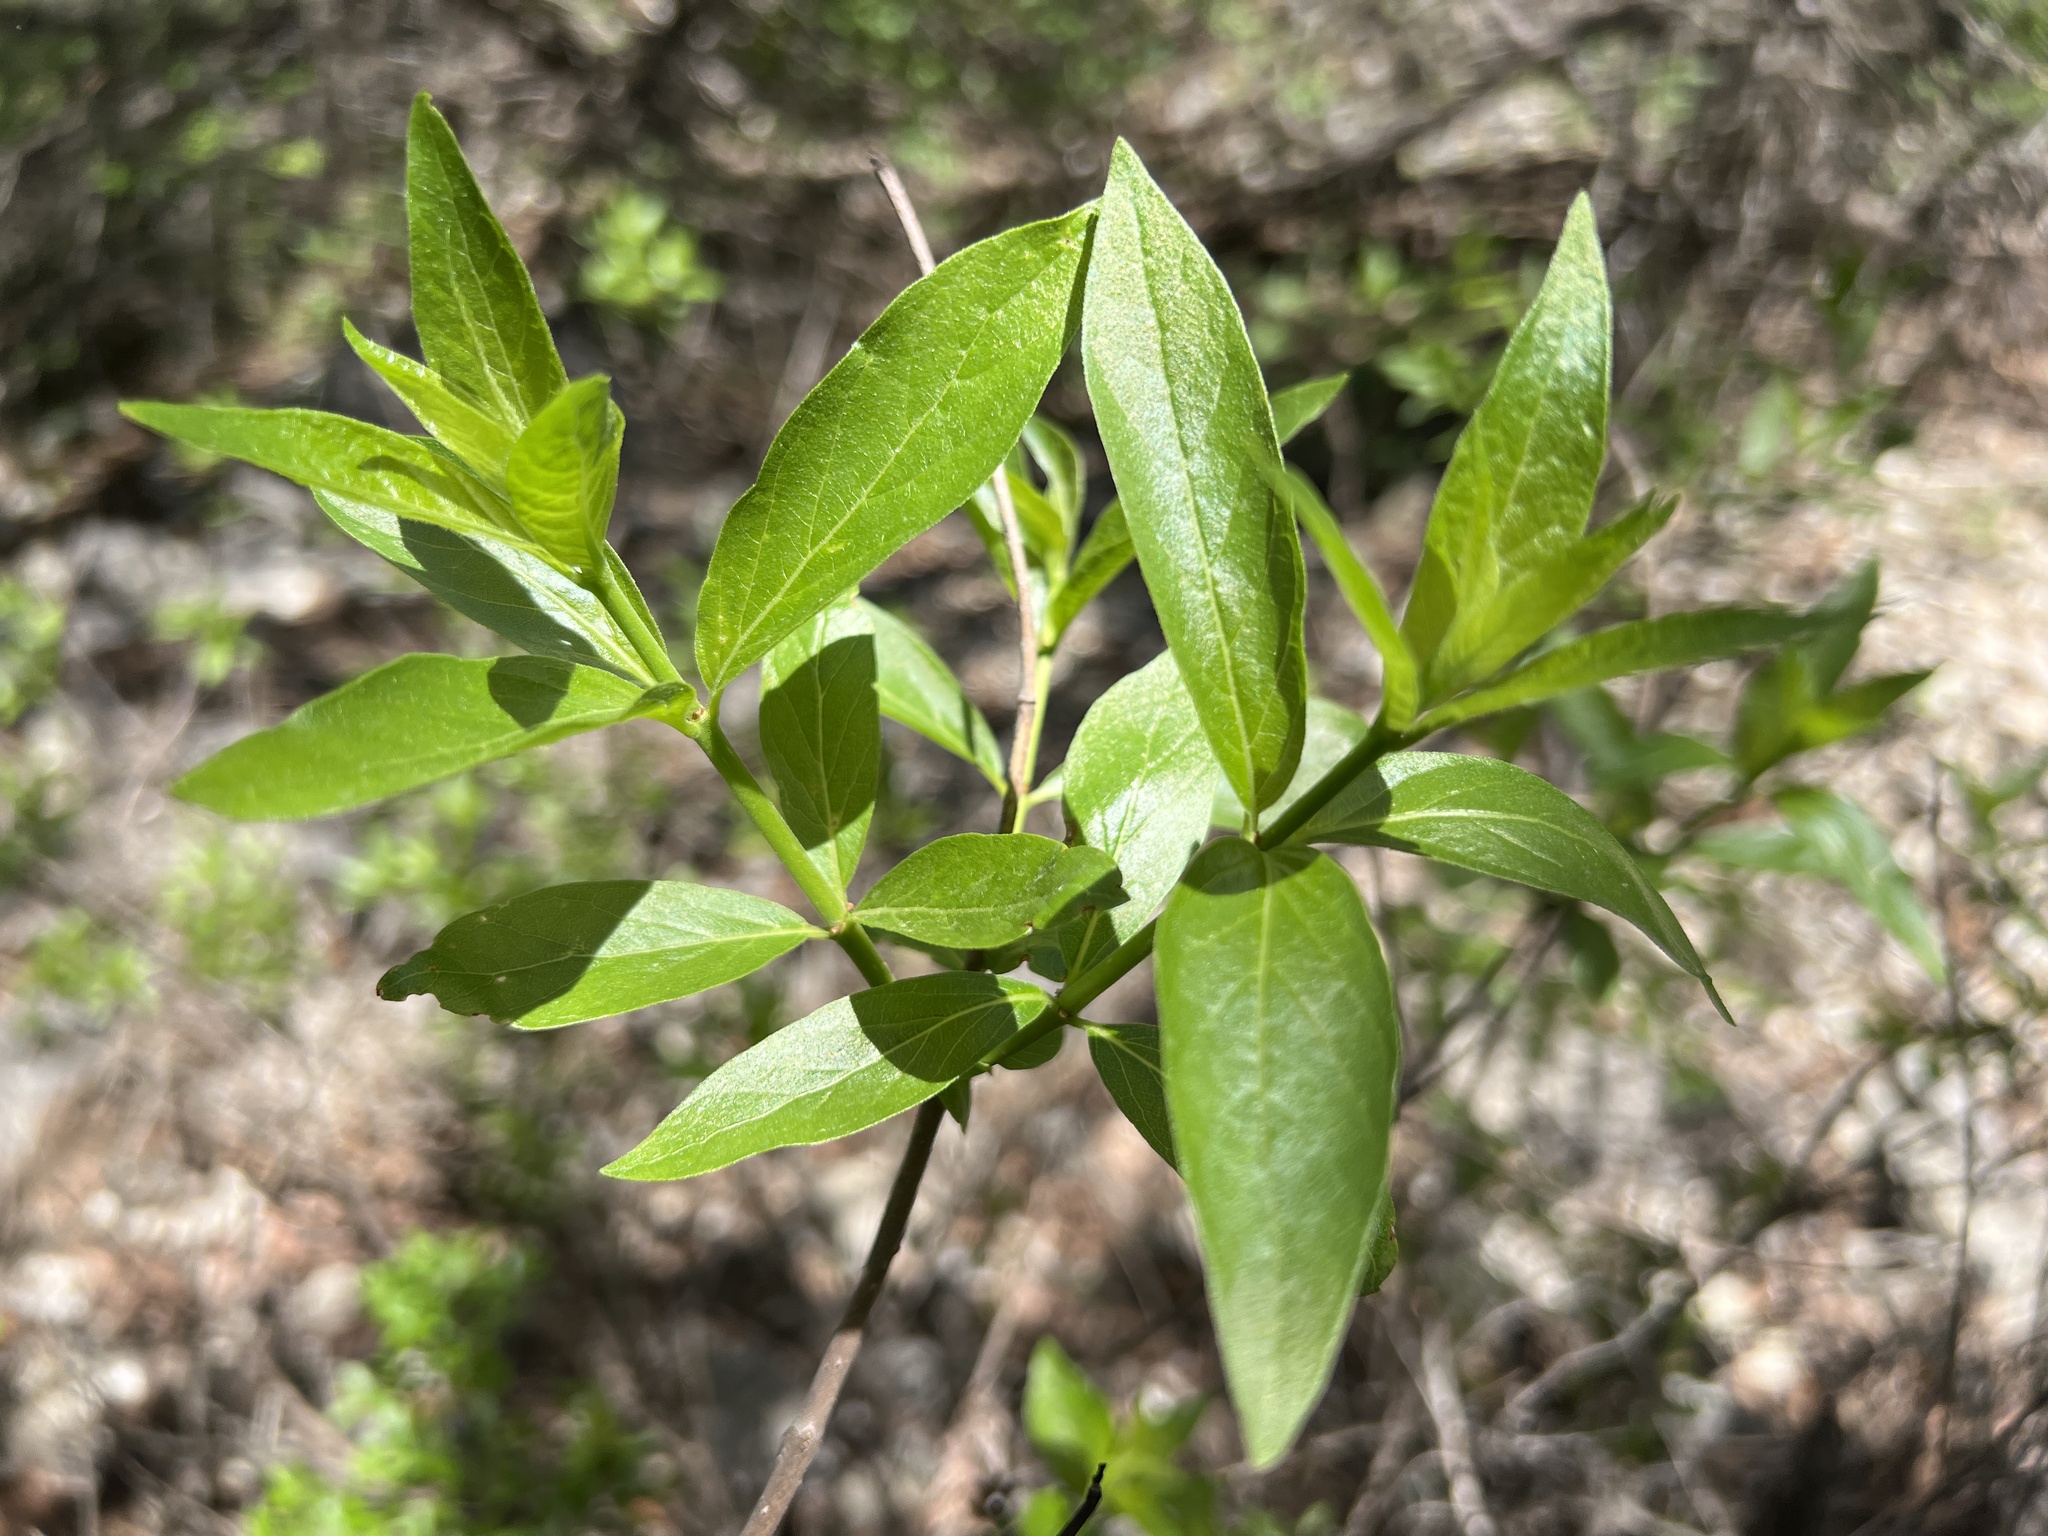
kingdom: Plantae
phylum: Tracheophyta
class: Magnoliopsida
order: Gentianales
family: Rubiaceae
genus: Cephalanthus
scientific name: Cephalanthus occidentalis
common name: Button-willow
